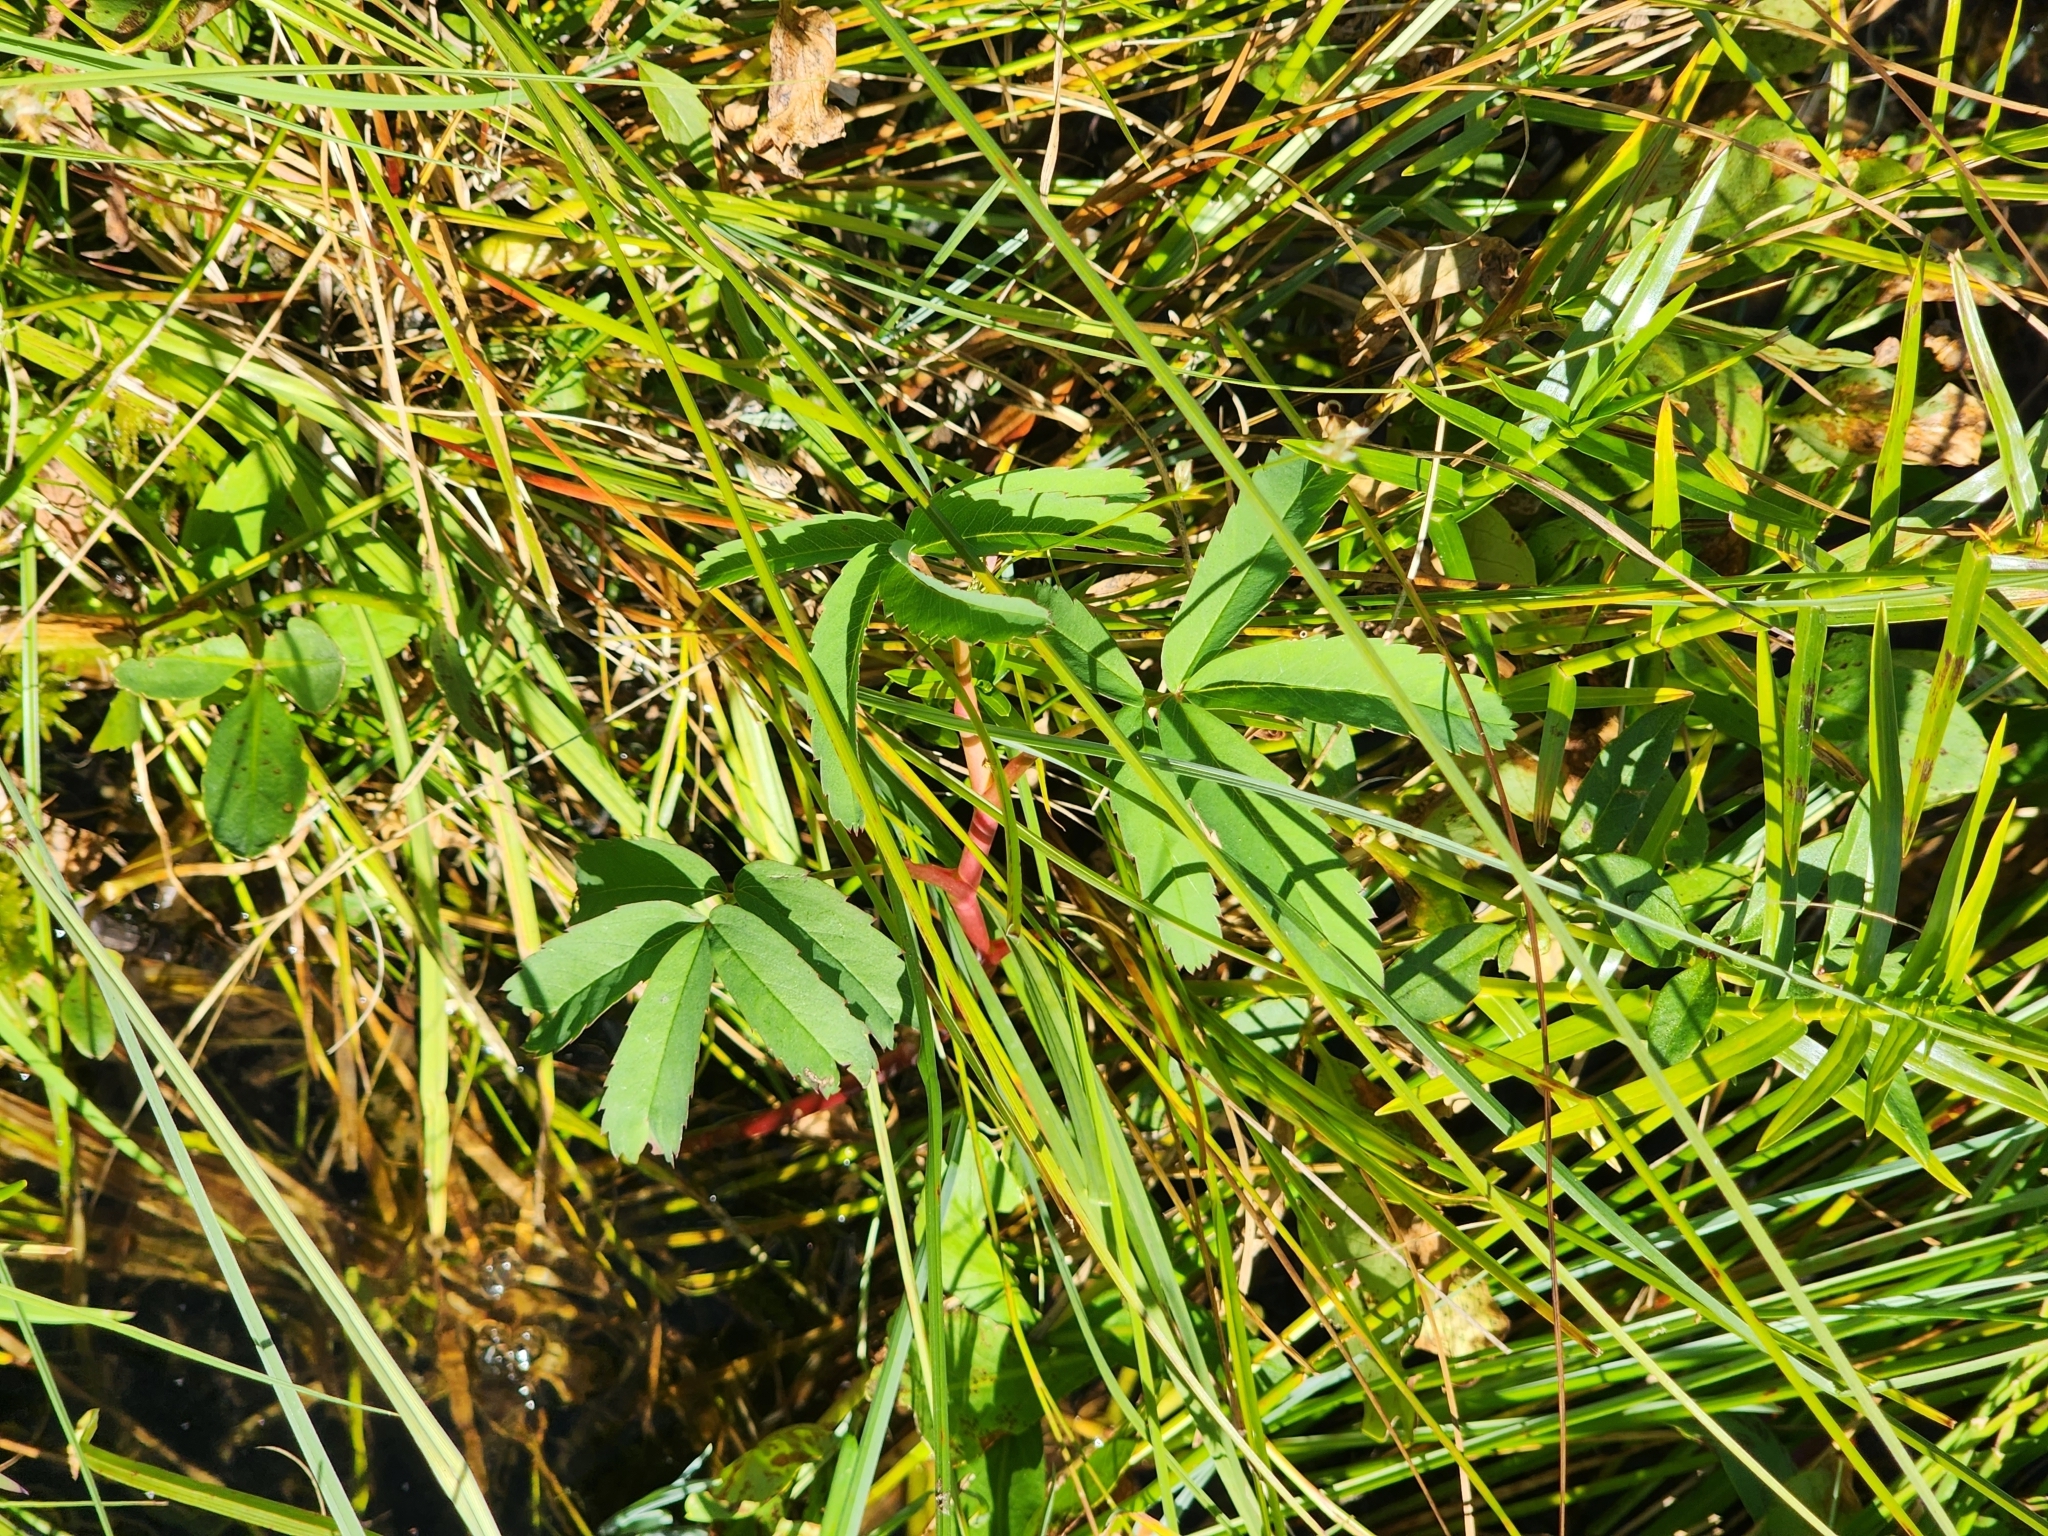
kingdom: Plantae
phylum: Tracheophyta
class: Magnoliopsida
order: Rosales
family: Rosaceae
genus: Comarum
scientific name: Comarum palustre
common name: Marsh cinquefoil
